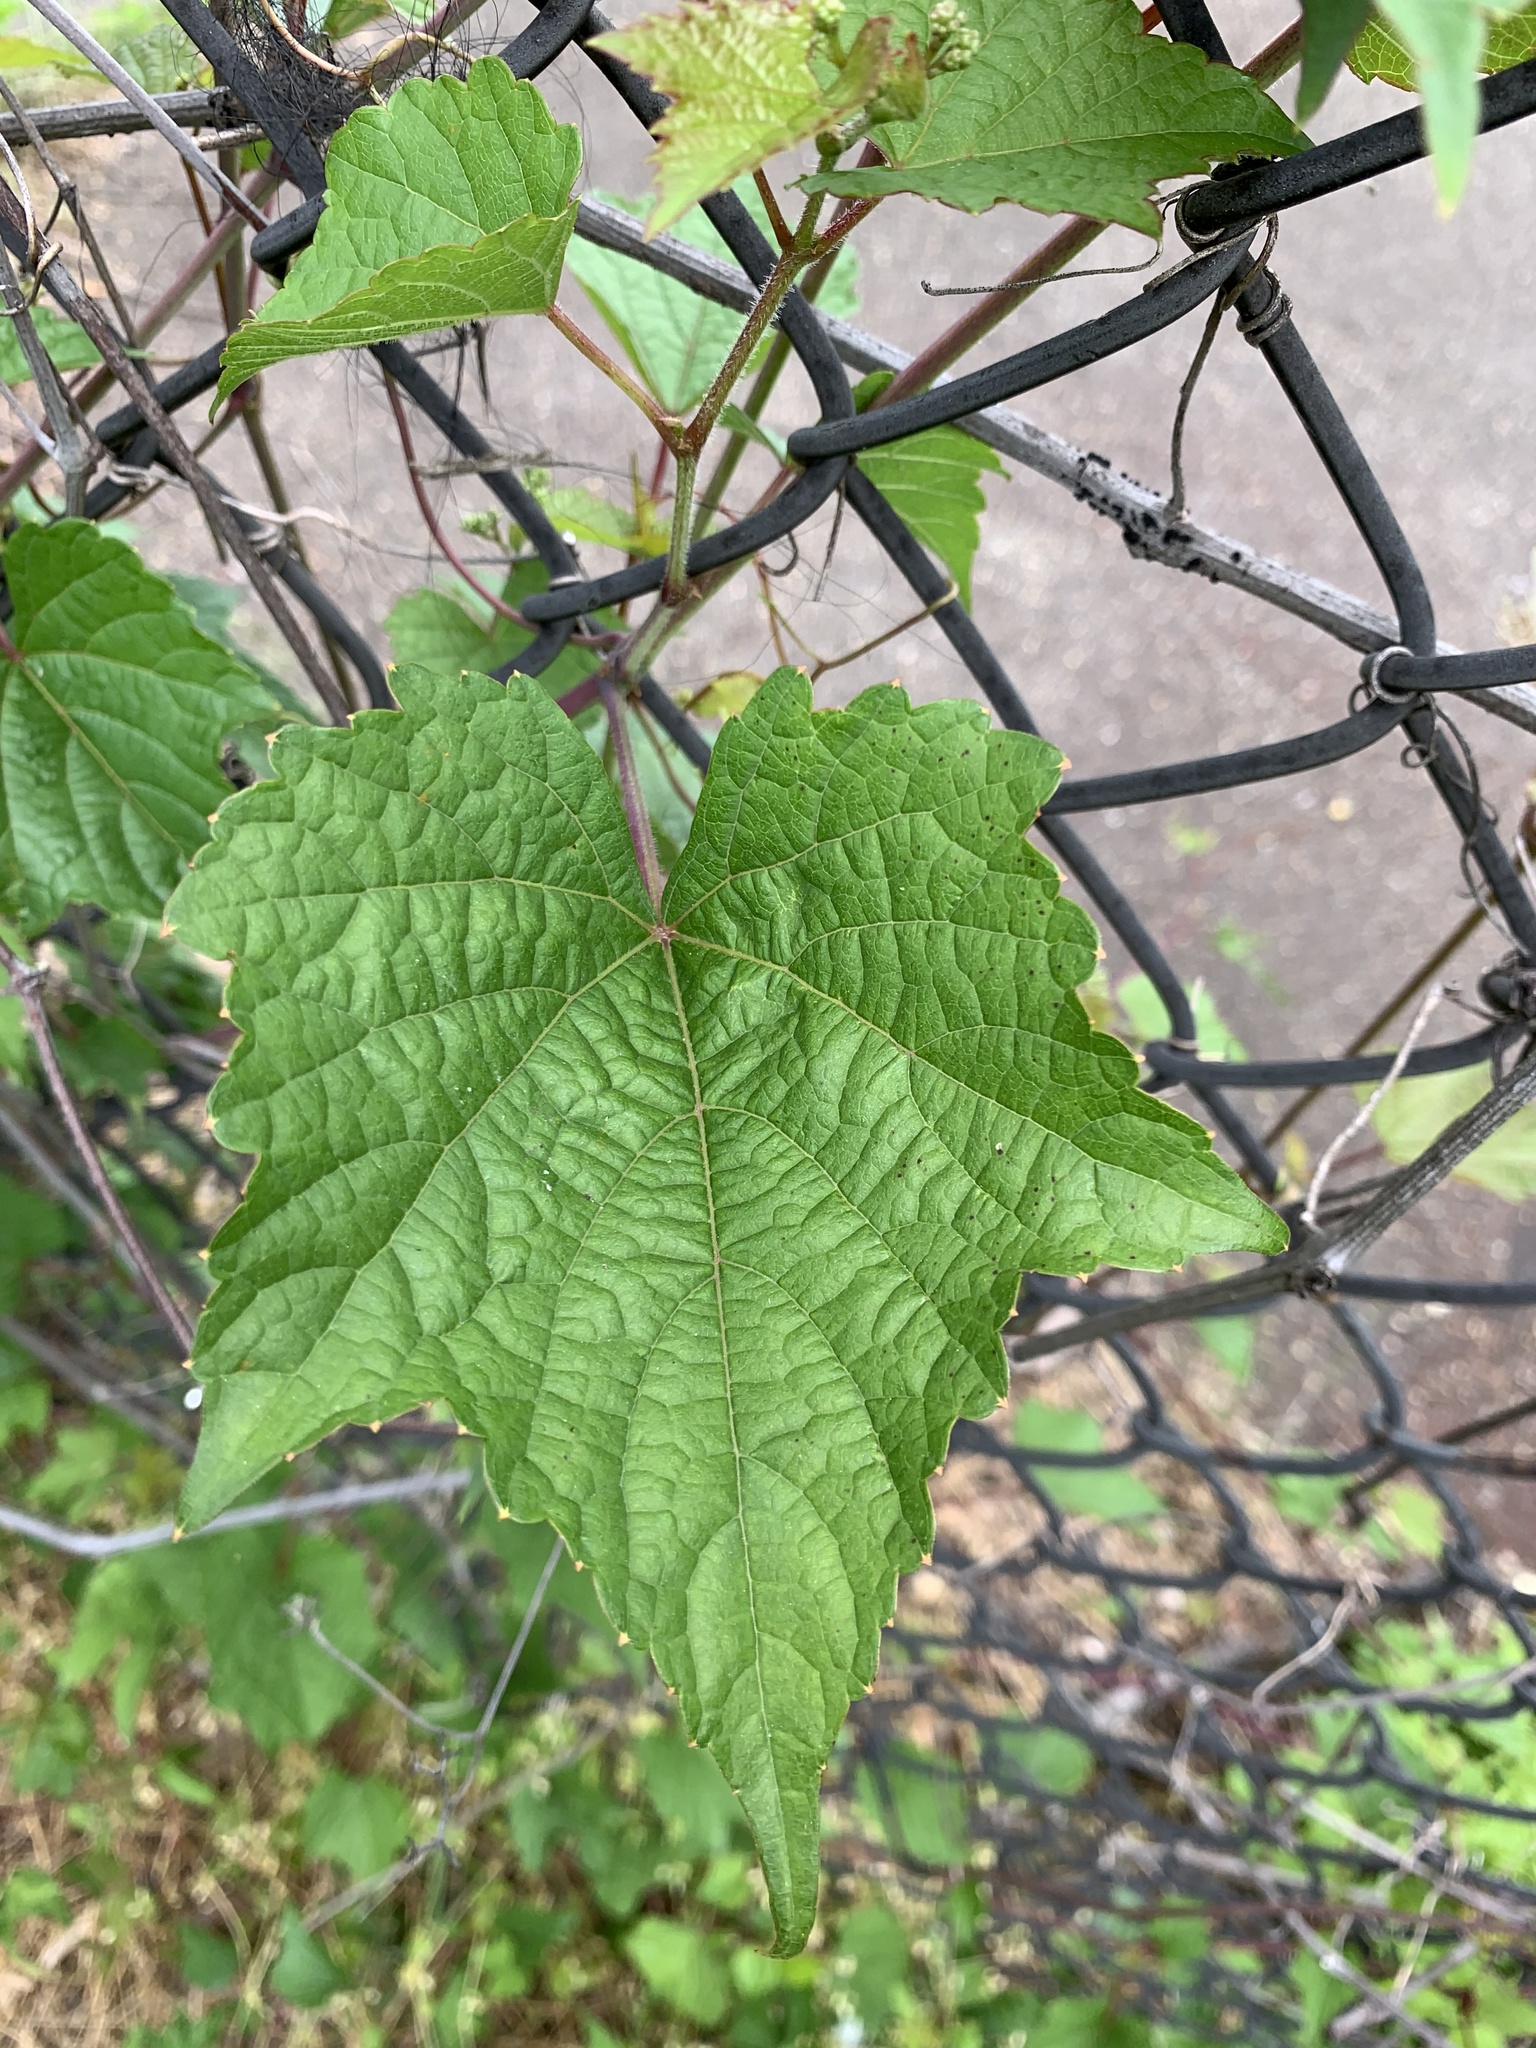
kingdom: Plantae
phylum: Tracheophyta
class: Magnoliopsida
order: Vitales
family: Vitaceae
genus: Ampelopsis
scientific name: Ampelopsis glandulosa
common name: Amur peppervine
